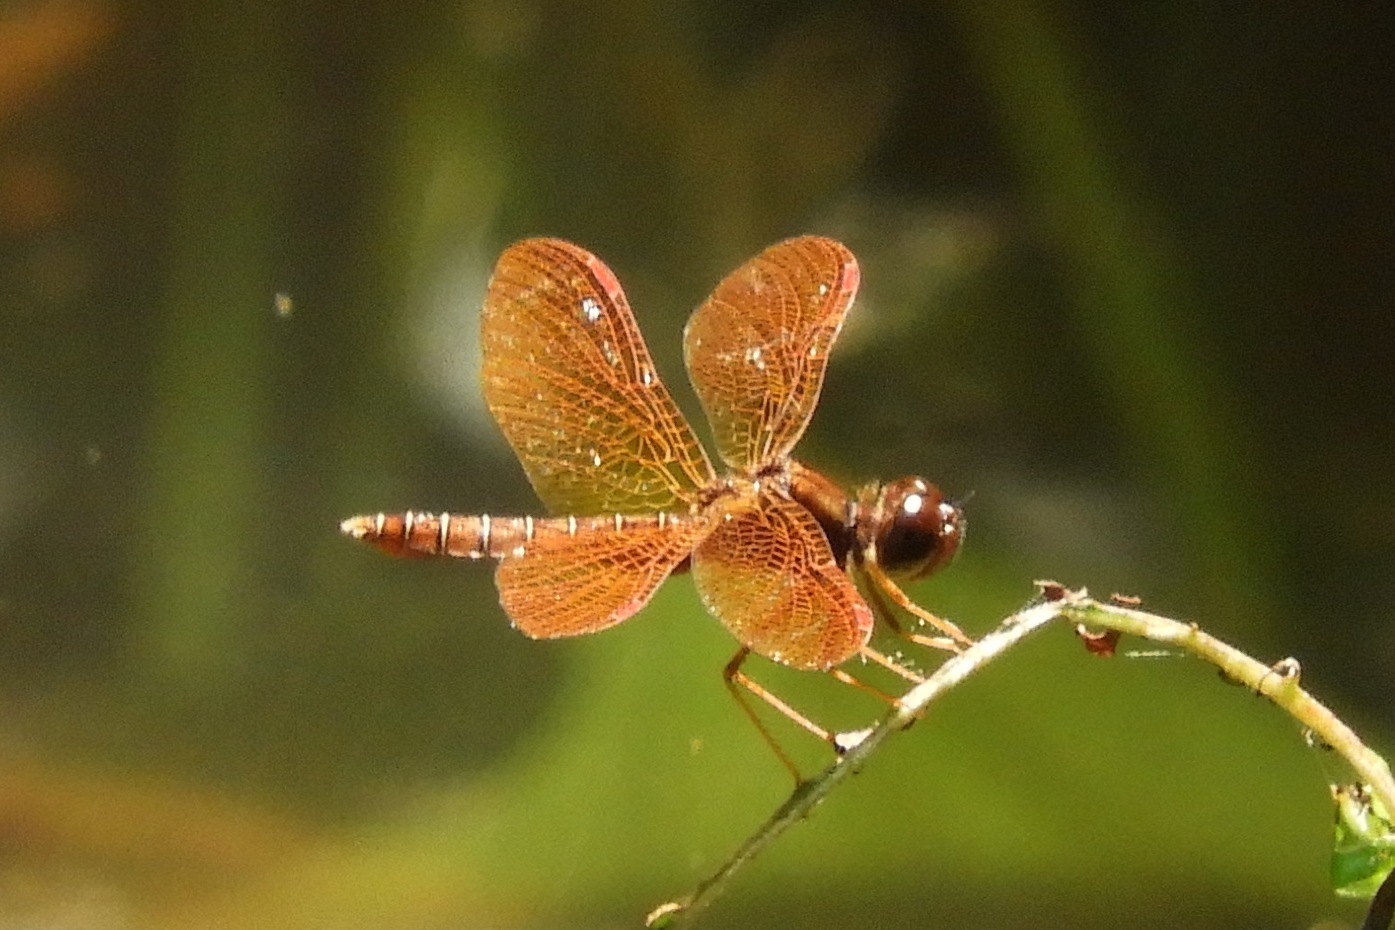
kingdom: Animalia
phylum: Arthropoda
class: Insecta
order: Odonata
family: Libellulidae
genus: Perithemis
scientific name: Perithemis tenera
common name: Eastern amberwing
